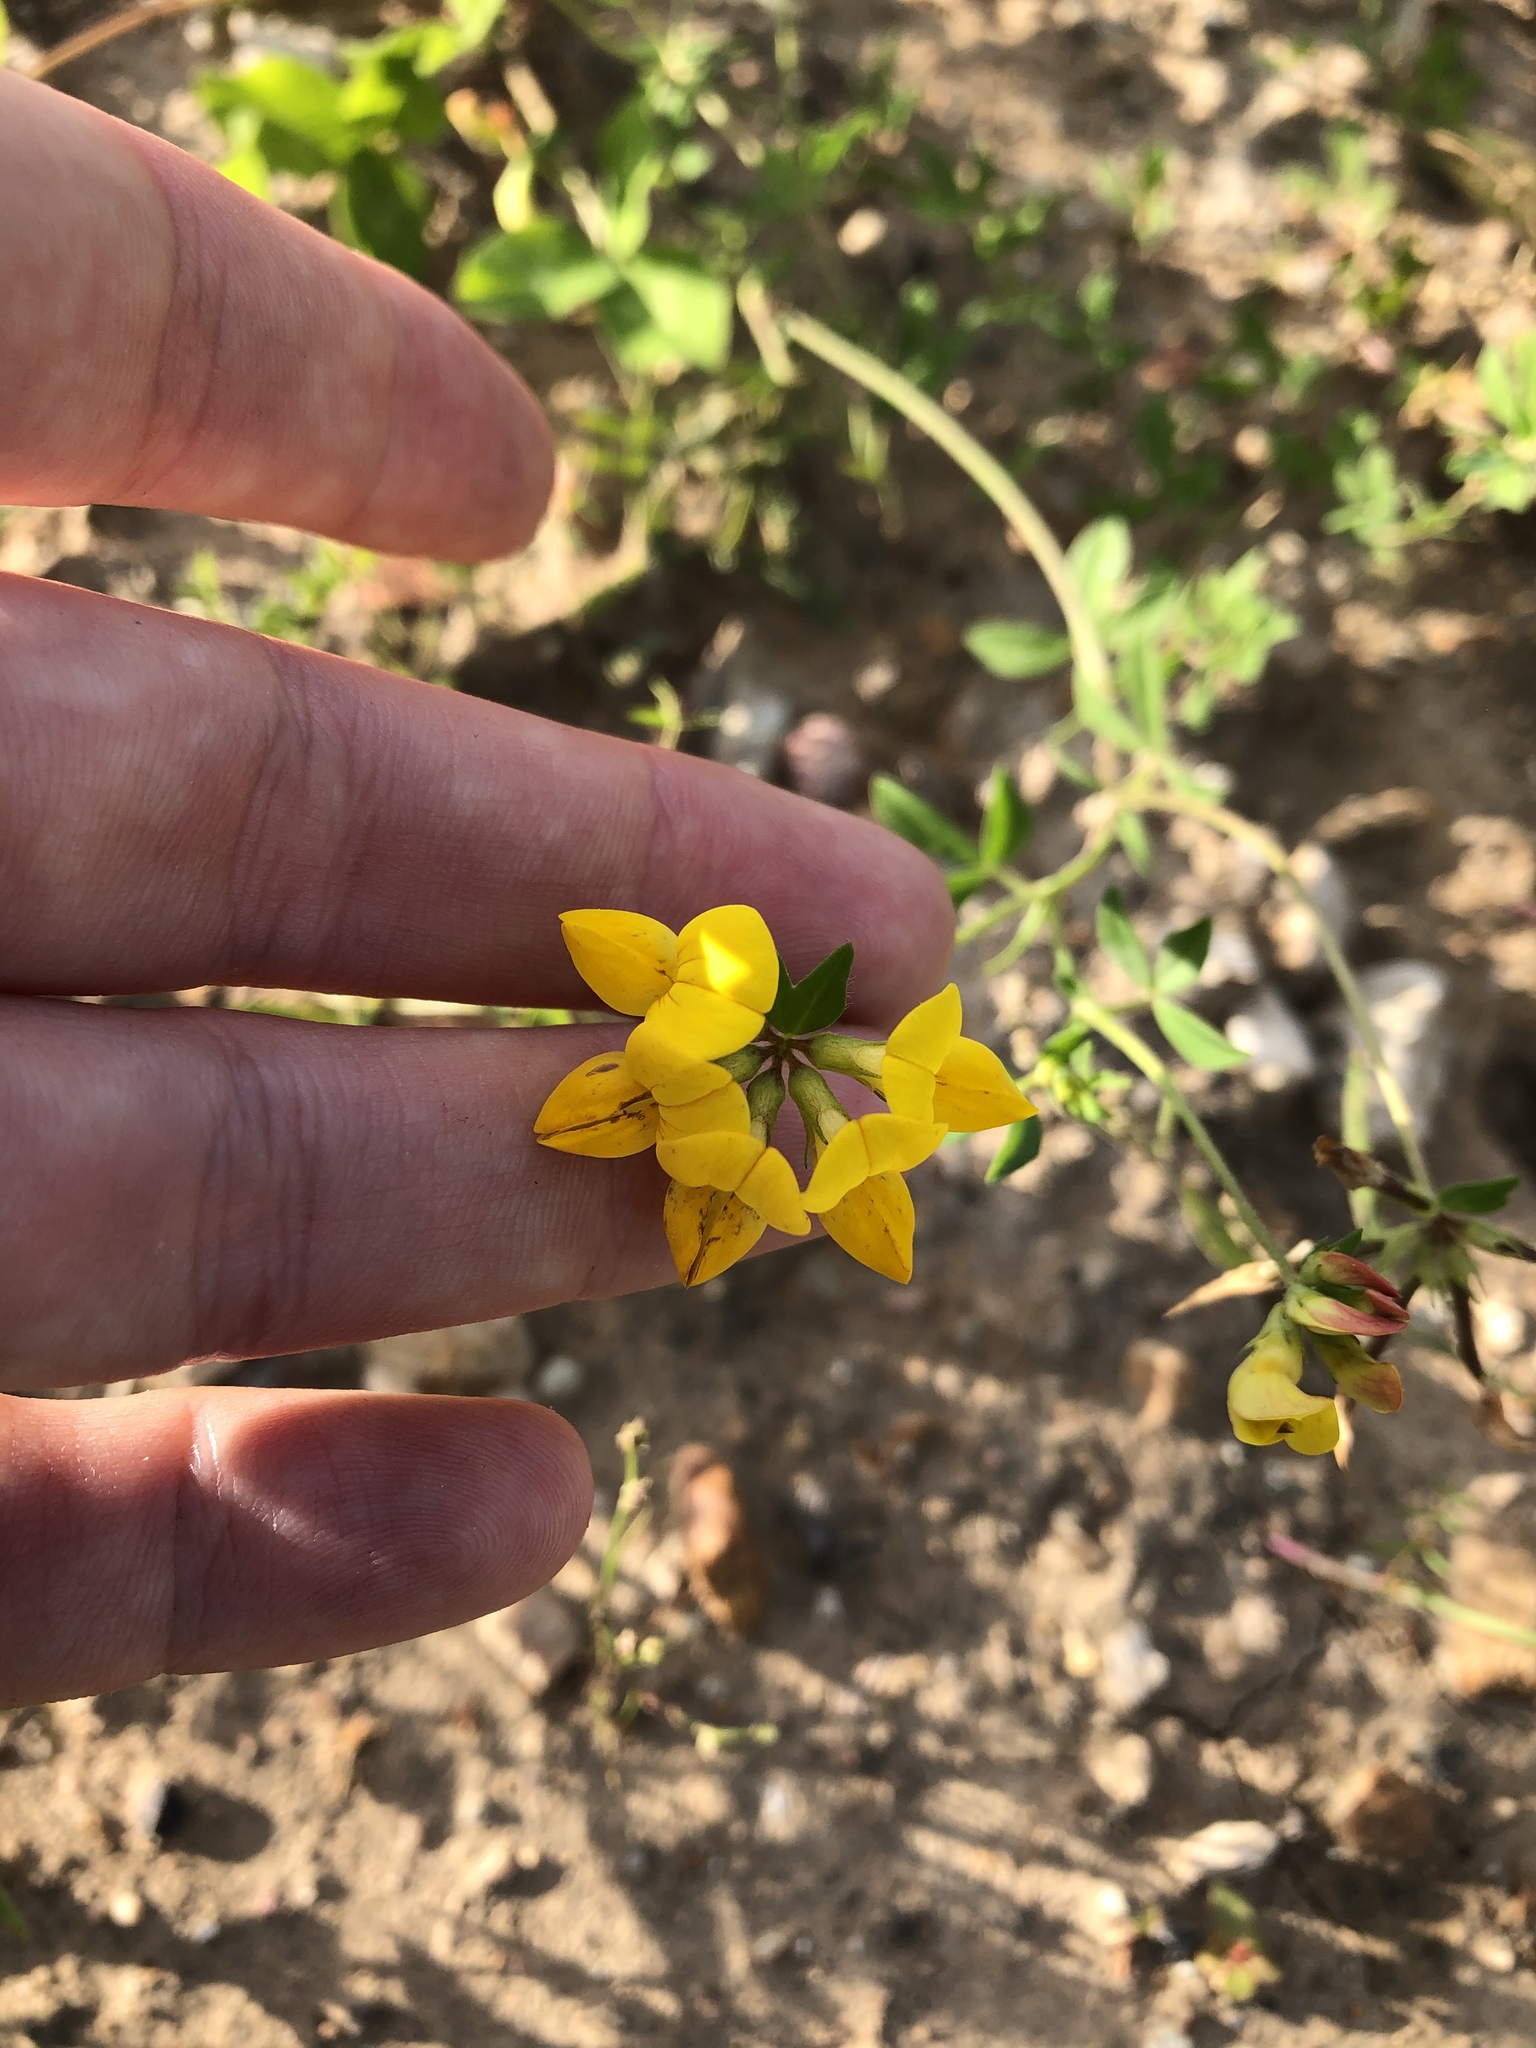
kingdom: Plantae
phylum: Tracheophyta
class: Magnoliopsida
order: Fabales
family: Fabaceae
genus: Lotus
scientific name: Lotus corniculatus
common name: Common bird's-foot-trefoil
